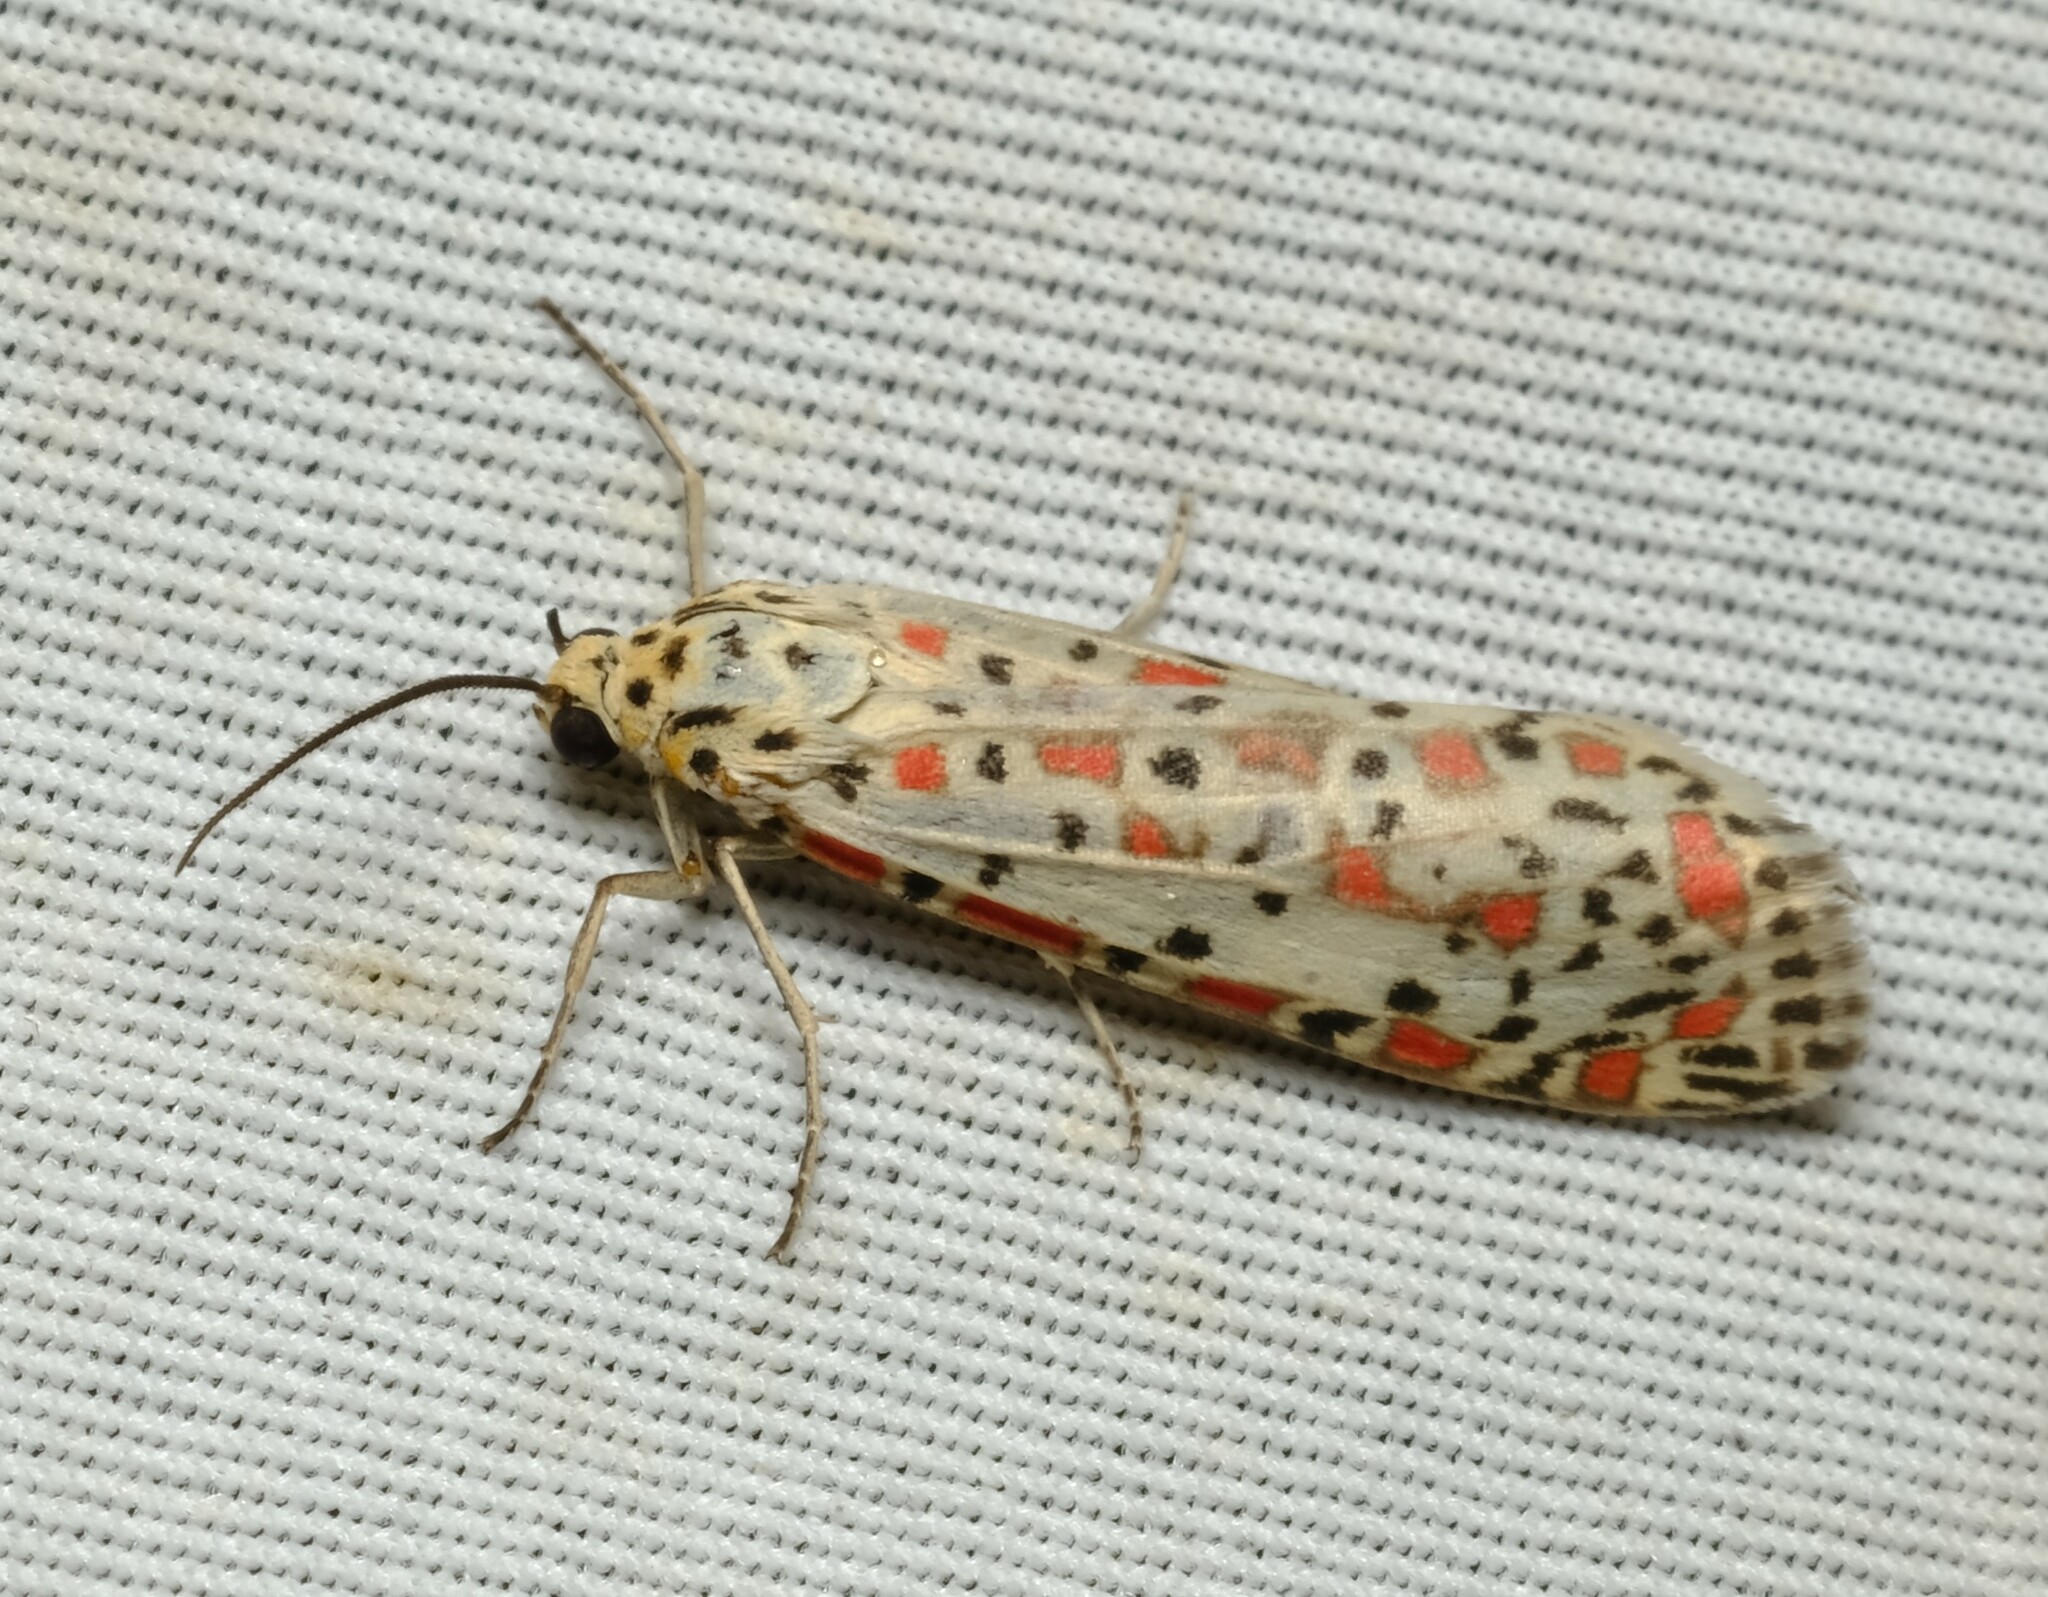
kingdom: Animalia
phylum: Arthropoda
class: Insecta
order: Lepidoptera
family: Erebidae
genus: Utetheisa
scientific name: Utetheisa pulchelloides
